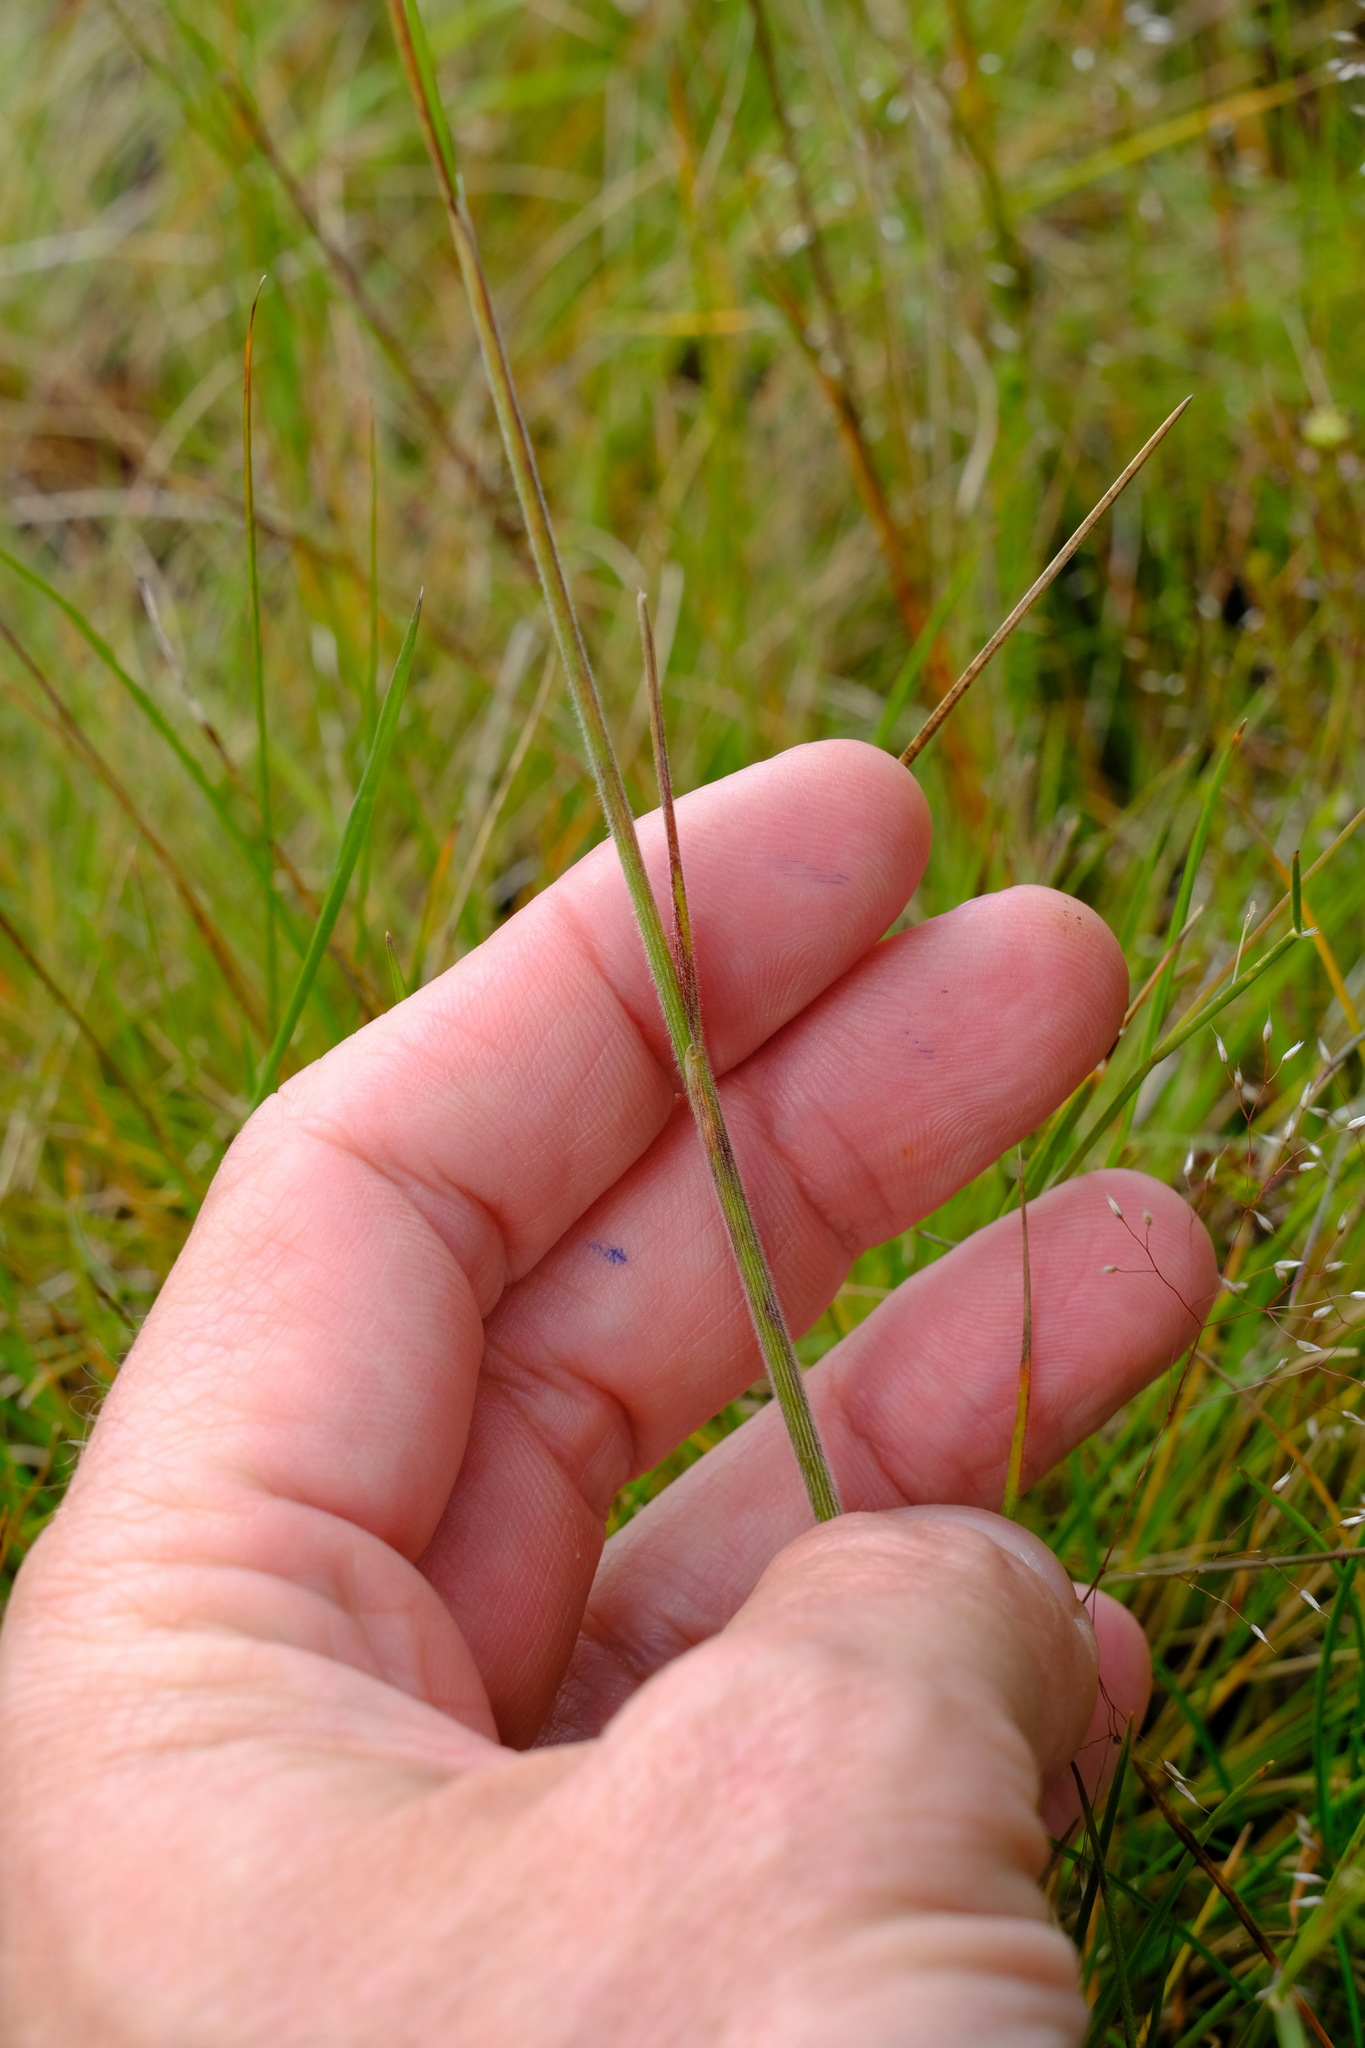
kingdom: Plantae
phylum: Tracheophyta
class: Liliopsida
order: Poales
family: Poaceae
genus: Pentapogon
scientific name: Pentapogon quadrifidus
